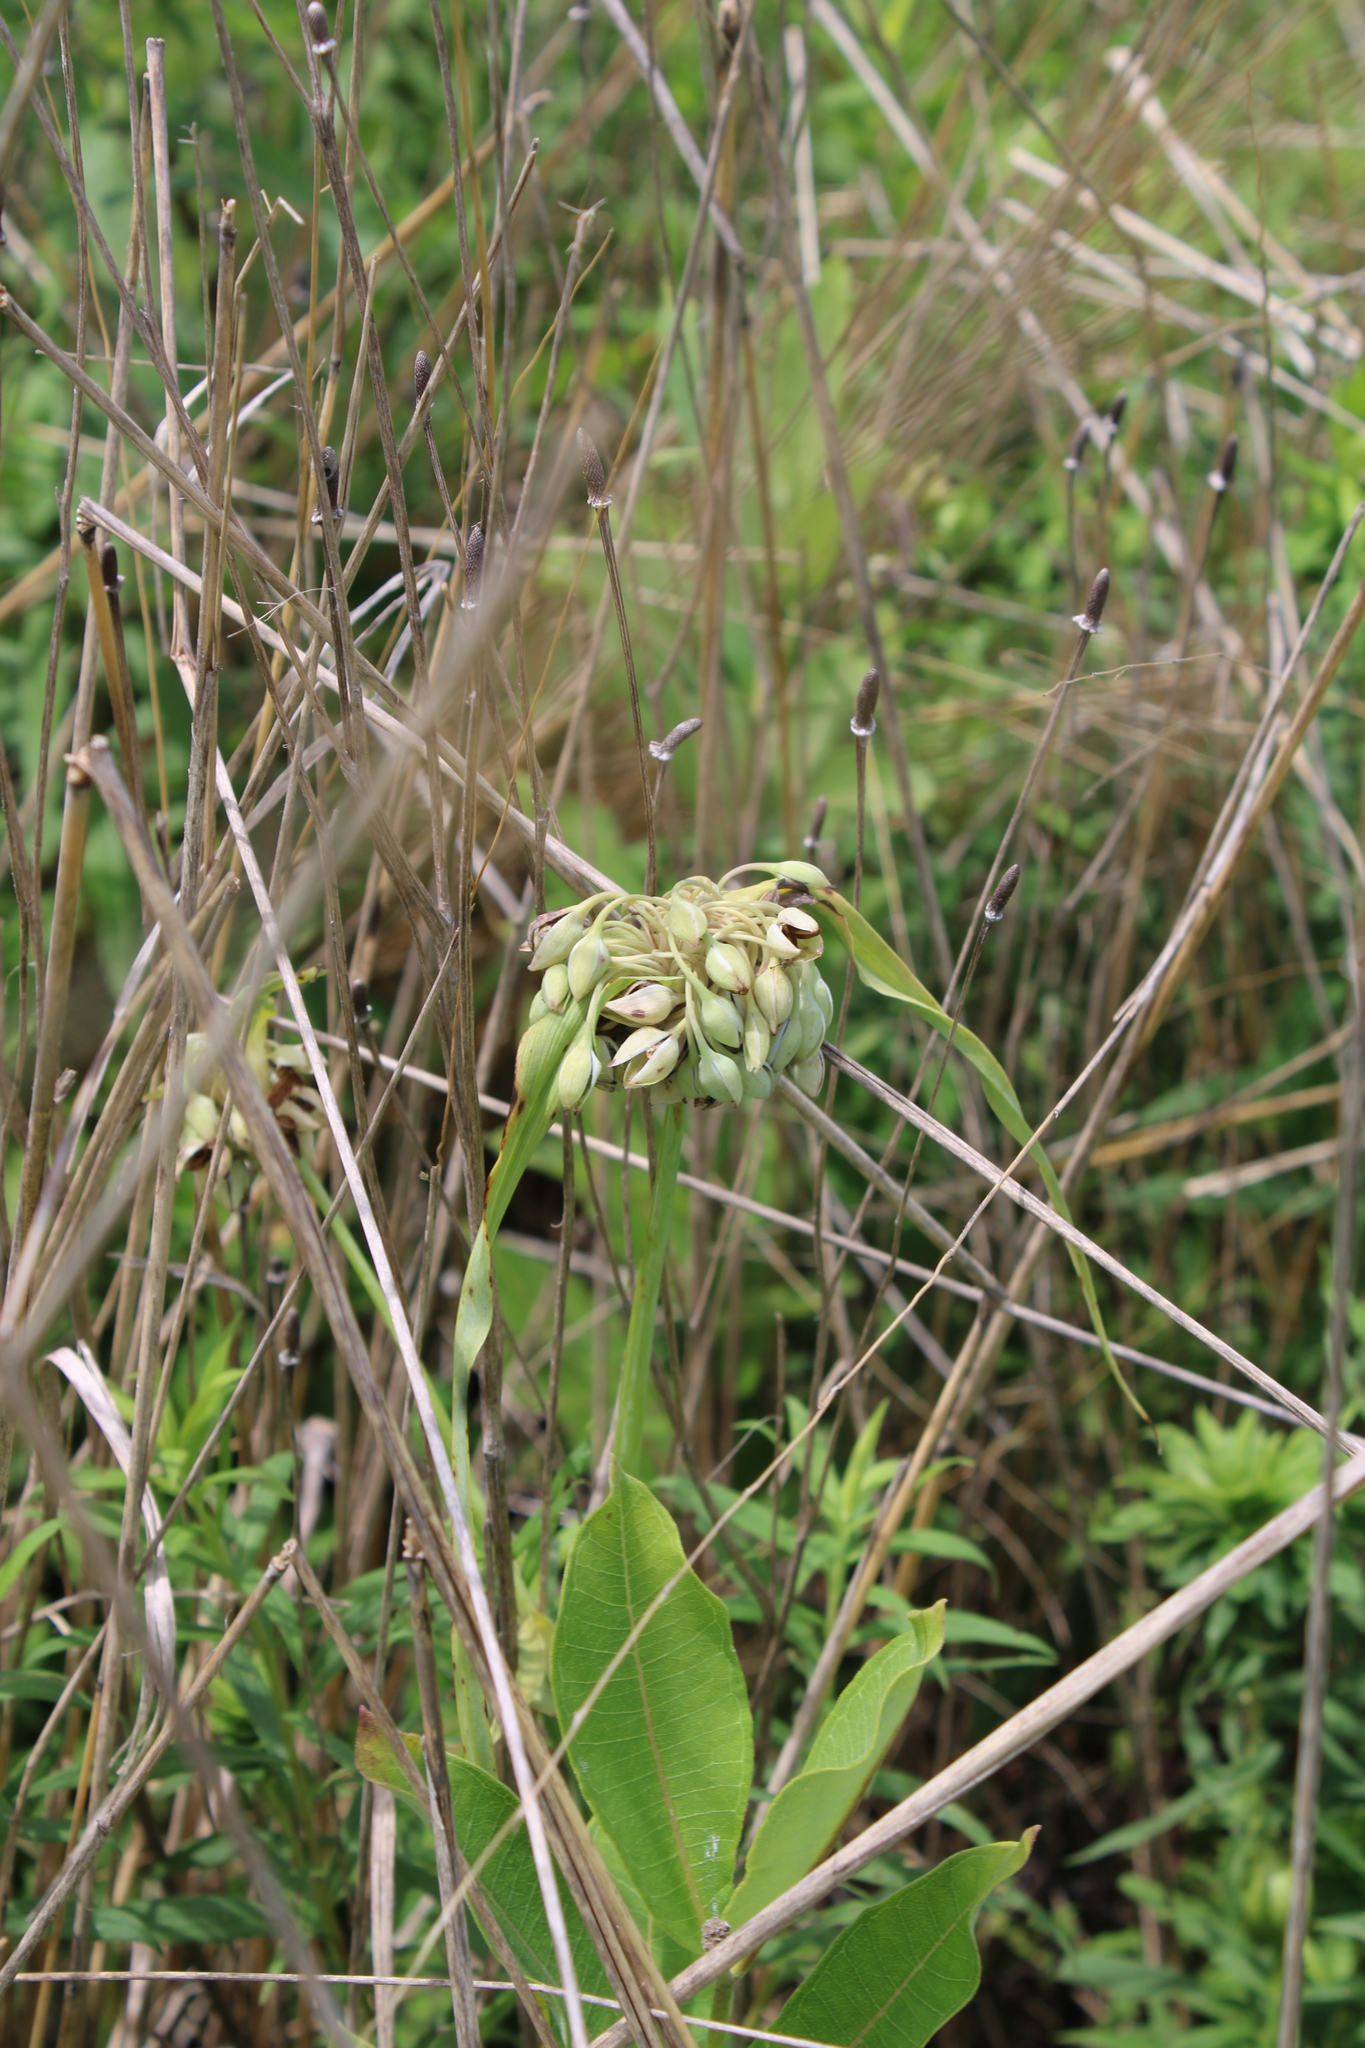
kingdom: Plantae
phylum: Tracheophyta
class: Liliopsida
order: Commelinales
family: Commelinaceae
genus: Tradescantia
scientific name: Tradescantia ohiensis
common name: Ohio spiderwort
